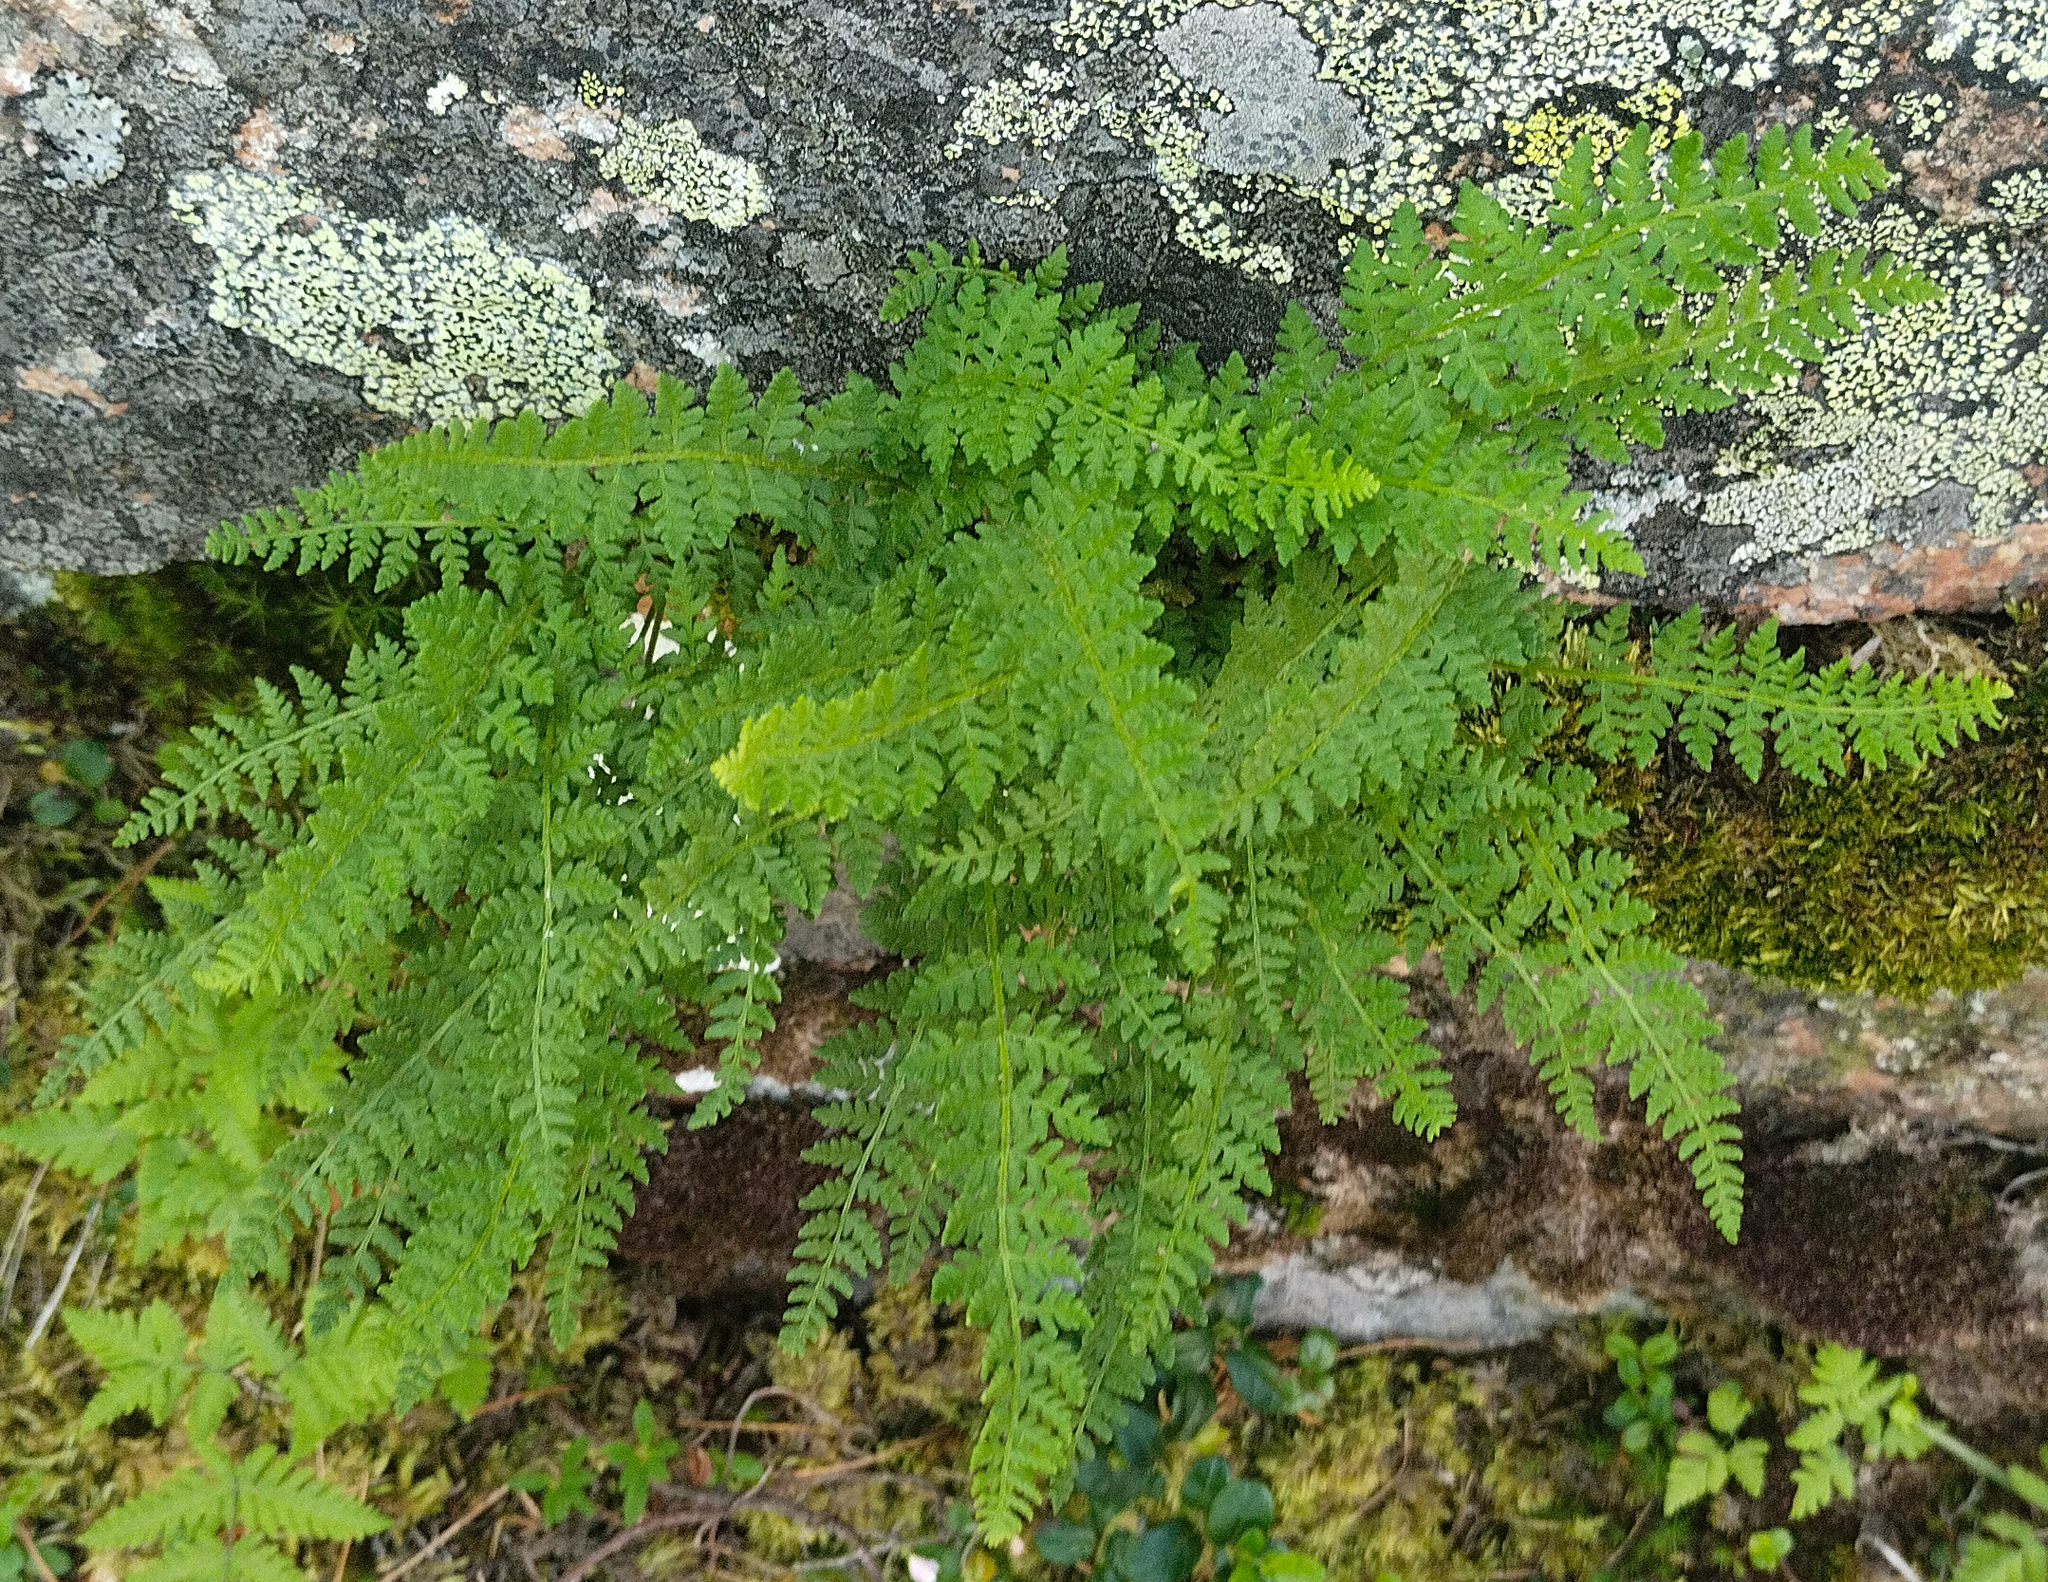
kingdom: Plantae
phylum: Tracheophyta
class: Polypodiopsida
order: Polypodiales
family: Cystopteridaceae
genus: Cystopteris
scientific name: Cystopteris fragilis
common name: Brittle bladder fern
